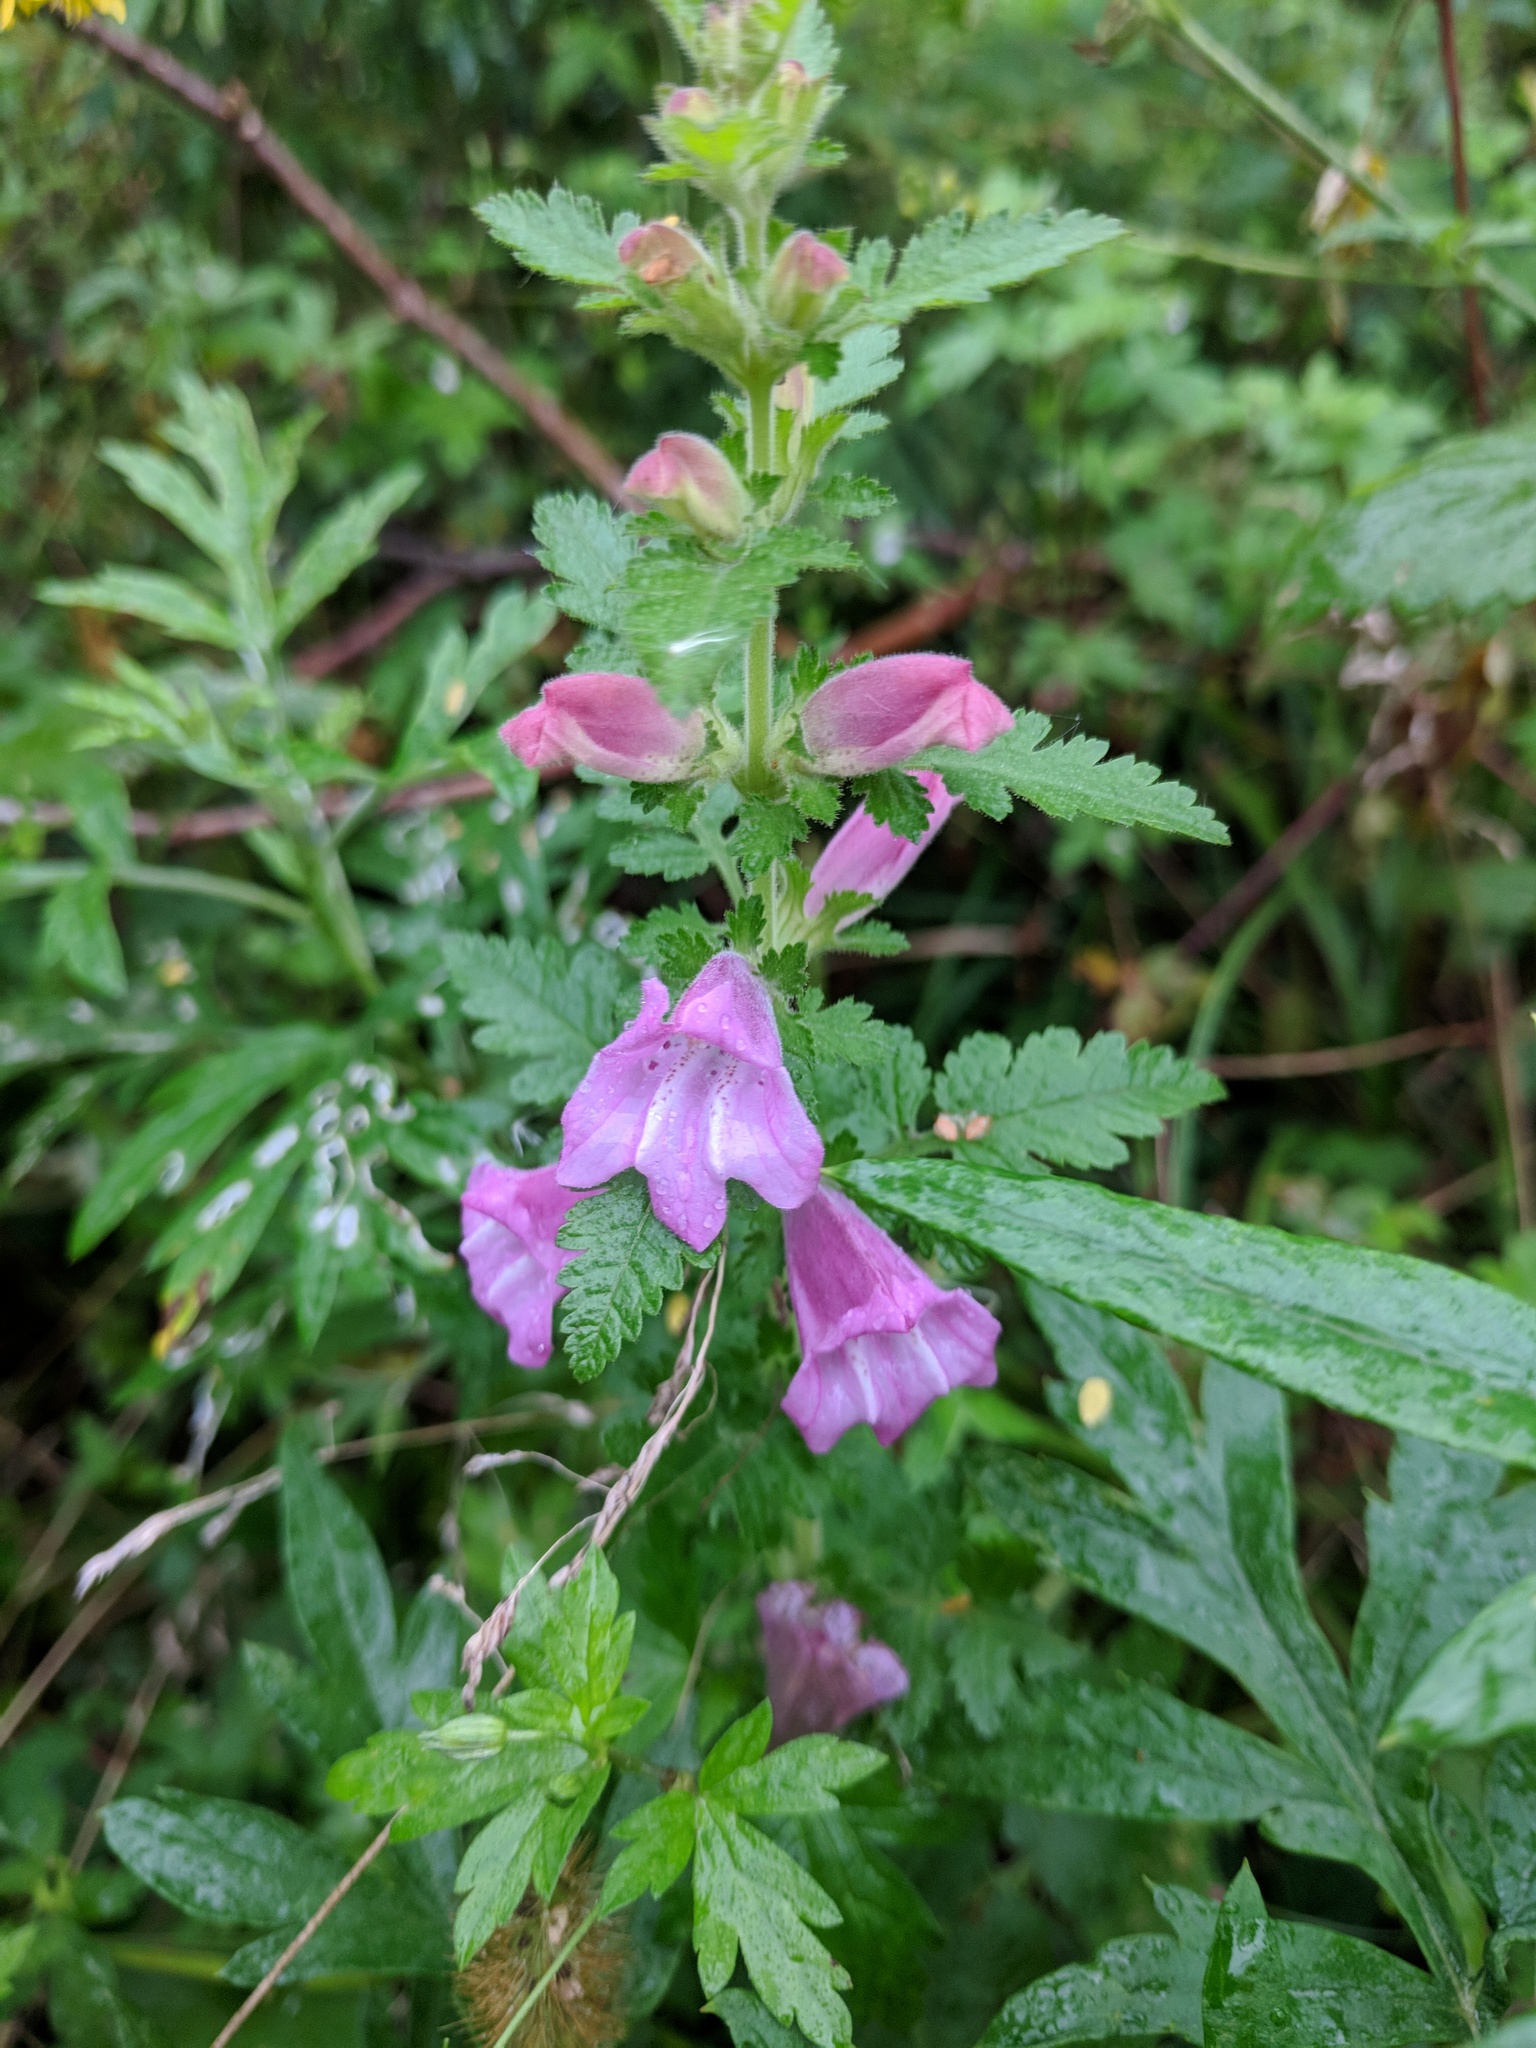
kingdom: Plantae
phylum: Tracheophyta
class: Magnoliopsida
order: Lamiales
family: Orobanchaceae
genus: Phtheirospermum
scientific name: Phtheirospermum japonicum
